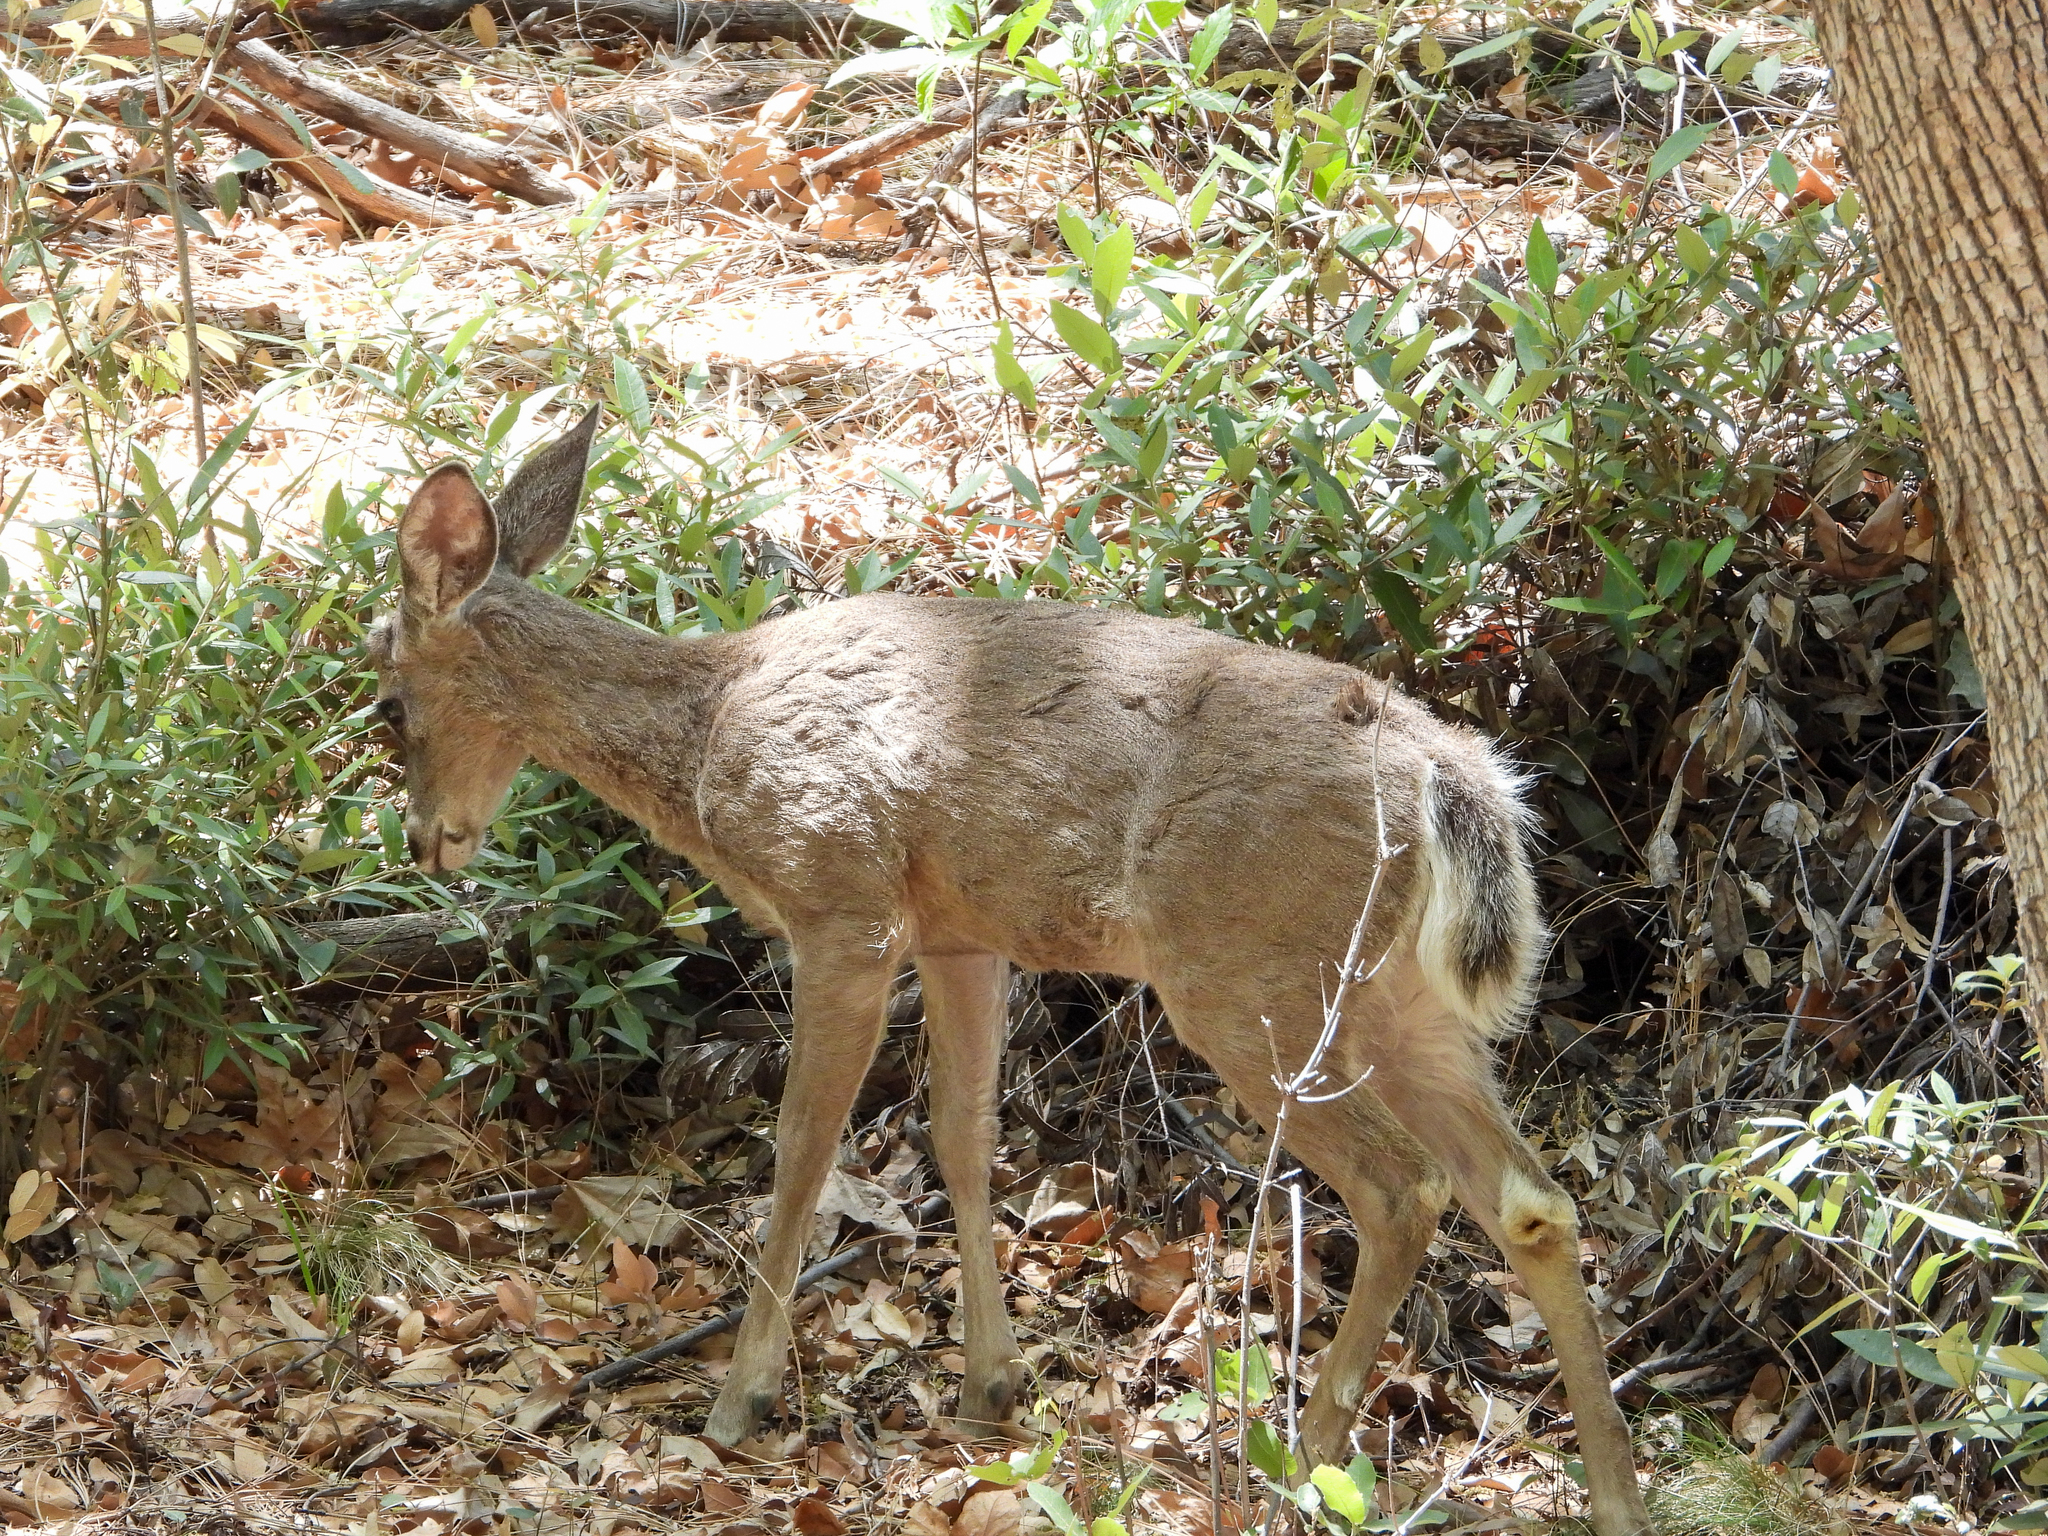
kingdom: Animalia
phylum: Chordata
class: Mammalia
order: Artiodactyla
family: Cervidae
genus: Odocoileus
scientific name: Odocoileus virginianus
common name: White-tailed deer
